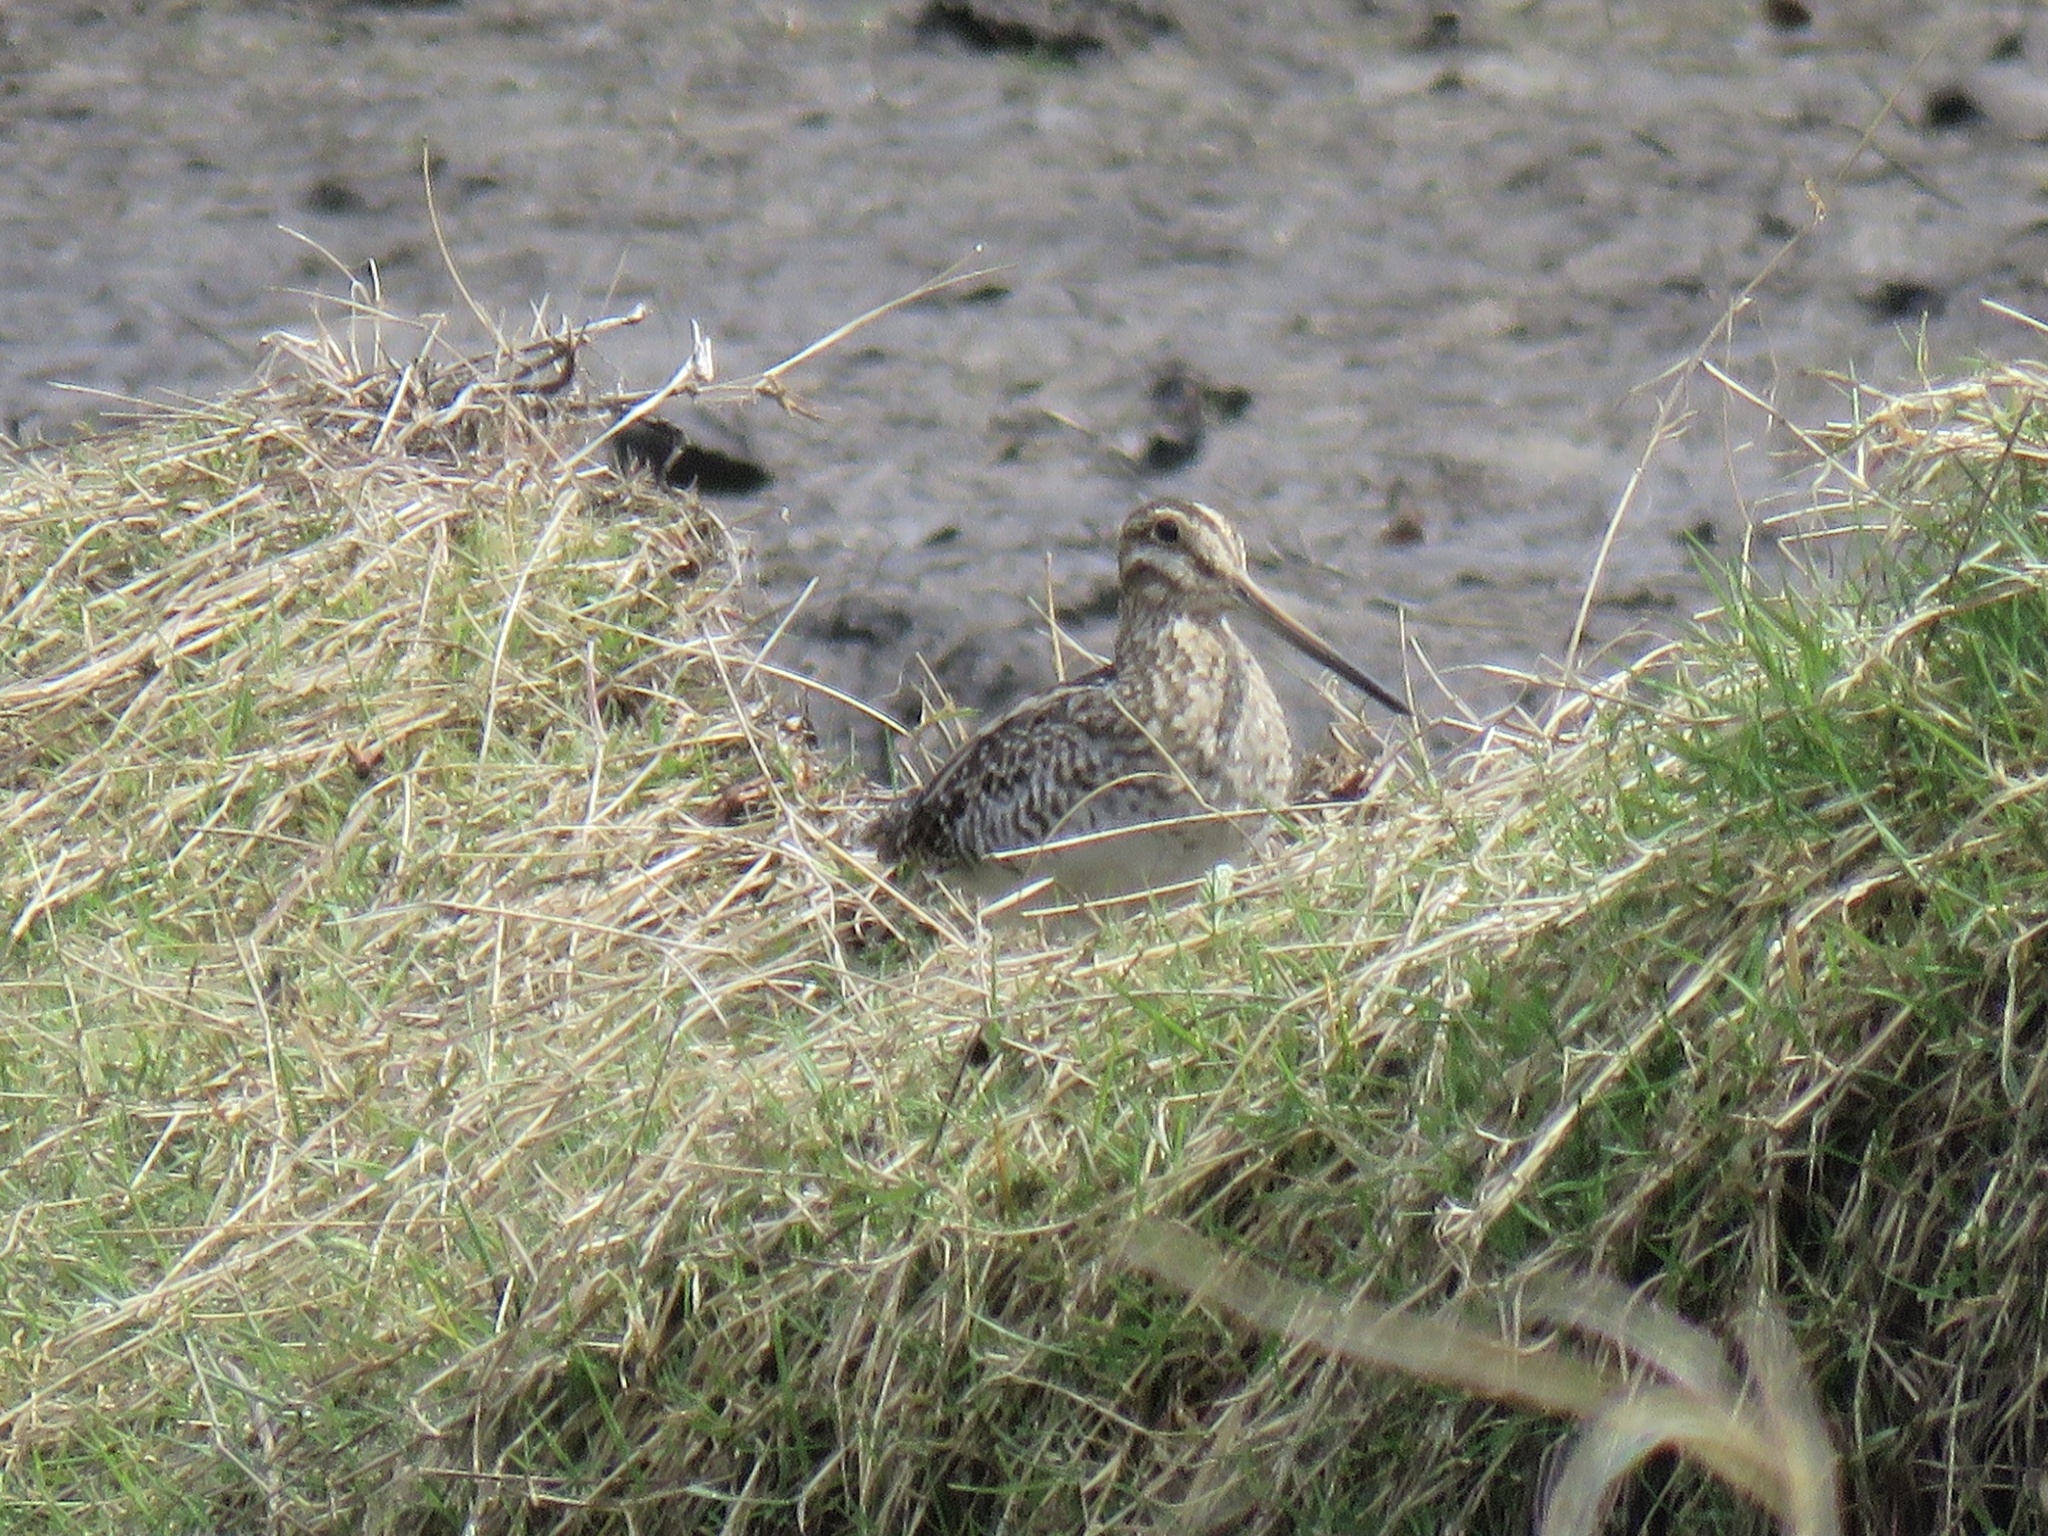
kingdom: Animalia
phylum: Chordata
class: Aves
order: Charadriiformes
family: Scolopacidae
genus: Gallinago
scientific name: Gallinago delicata
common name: Wilson's snipe
